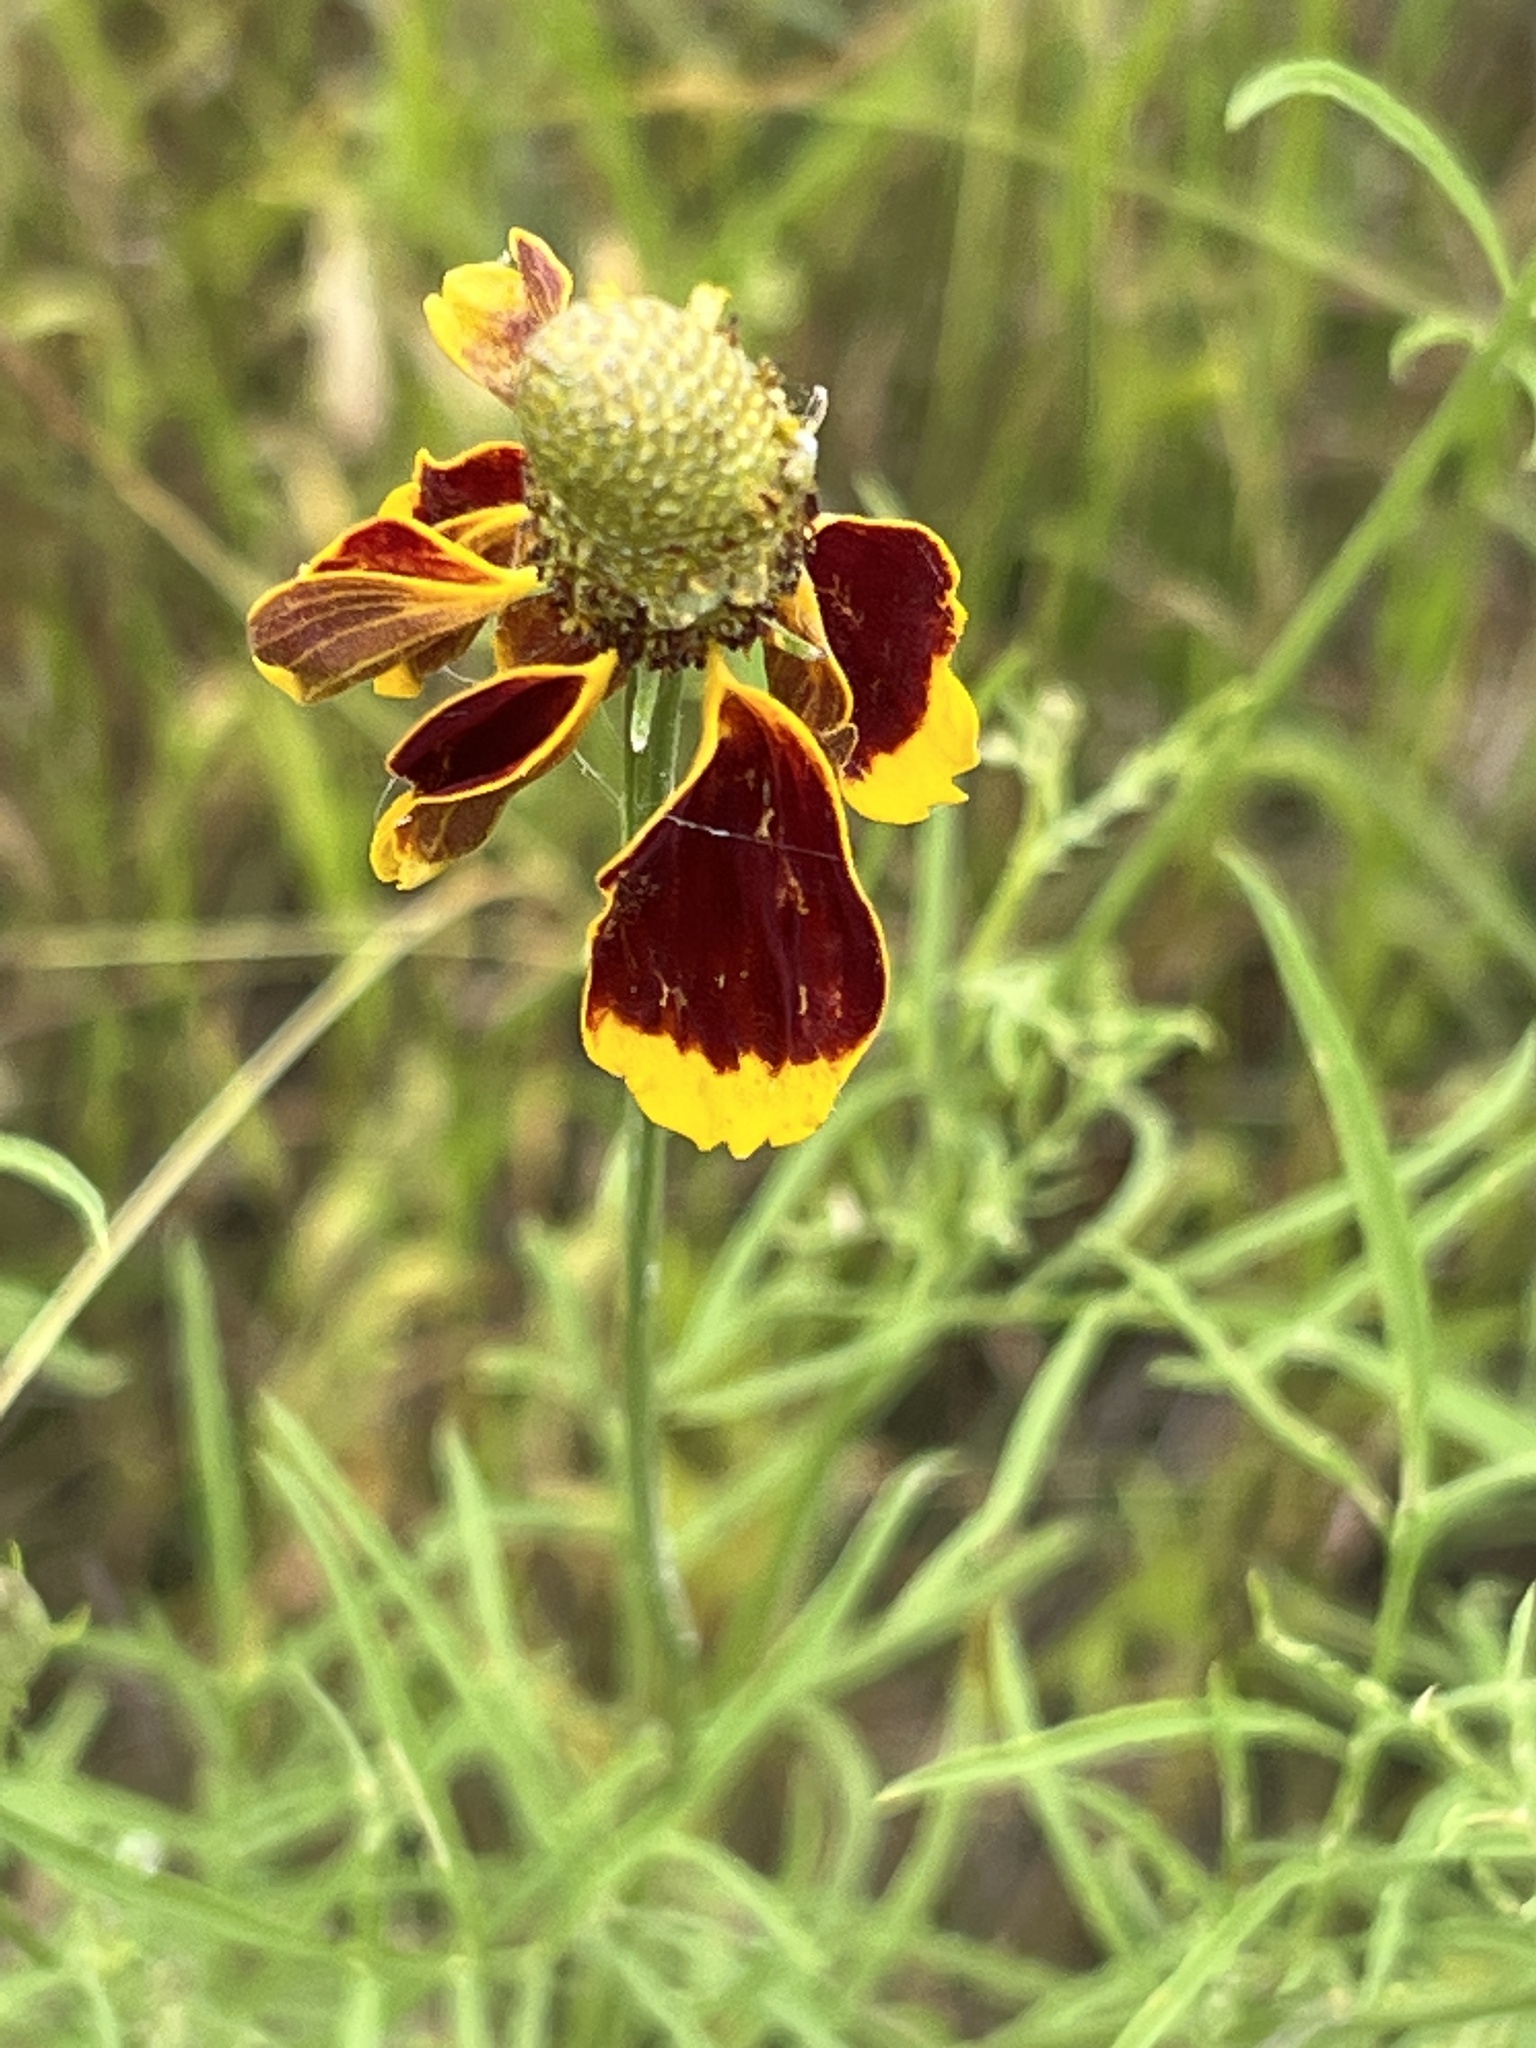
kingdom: Plantae
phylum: Tracheophyta
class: Magnoliopsida
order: Asterales
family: Asteraceae
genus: Ratibida
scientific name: Ratibida columnifera
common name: Prairie coneflower
